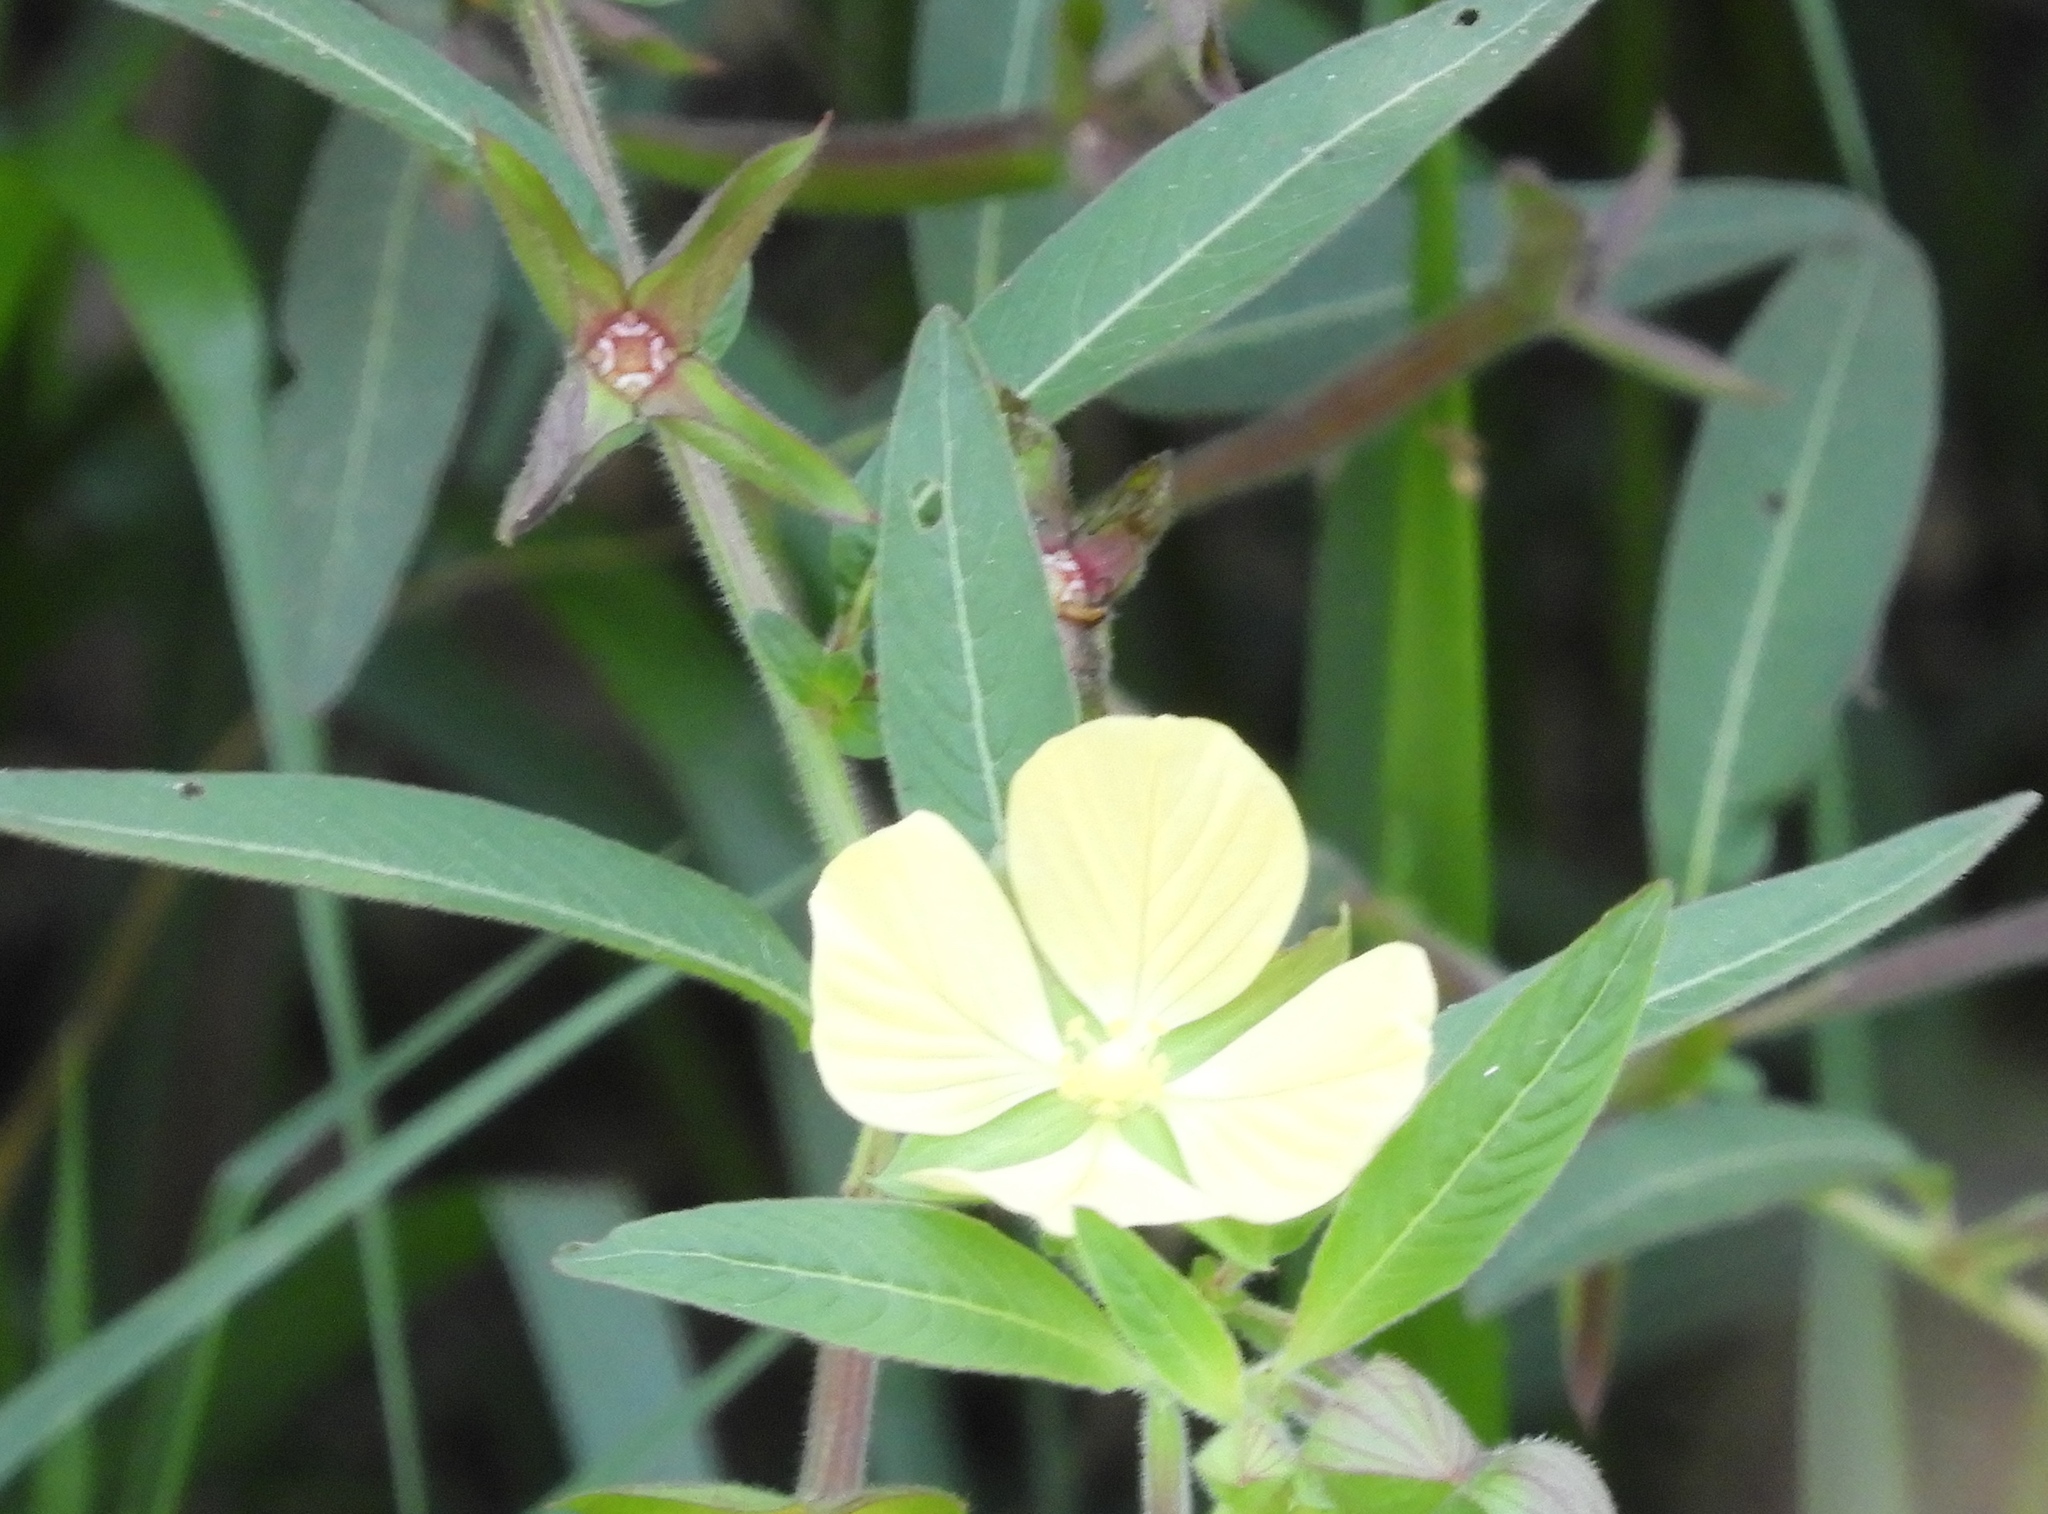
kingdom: Plantae
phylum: Tracheophyta
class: Magnoliopsida
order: Myrtales
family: Onagraceae
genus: Ludwigia
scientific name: Ludwigia octovalvis
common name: Water-primrose
